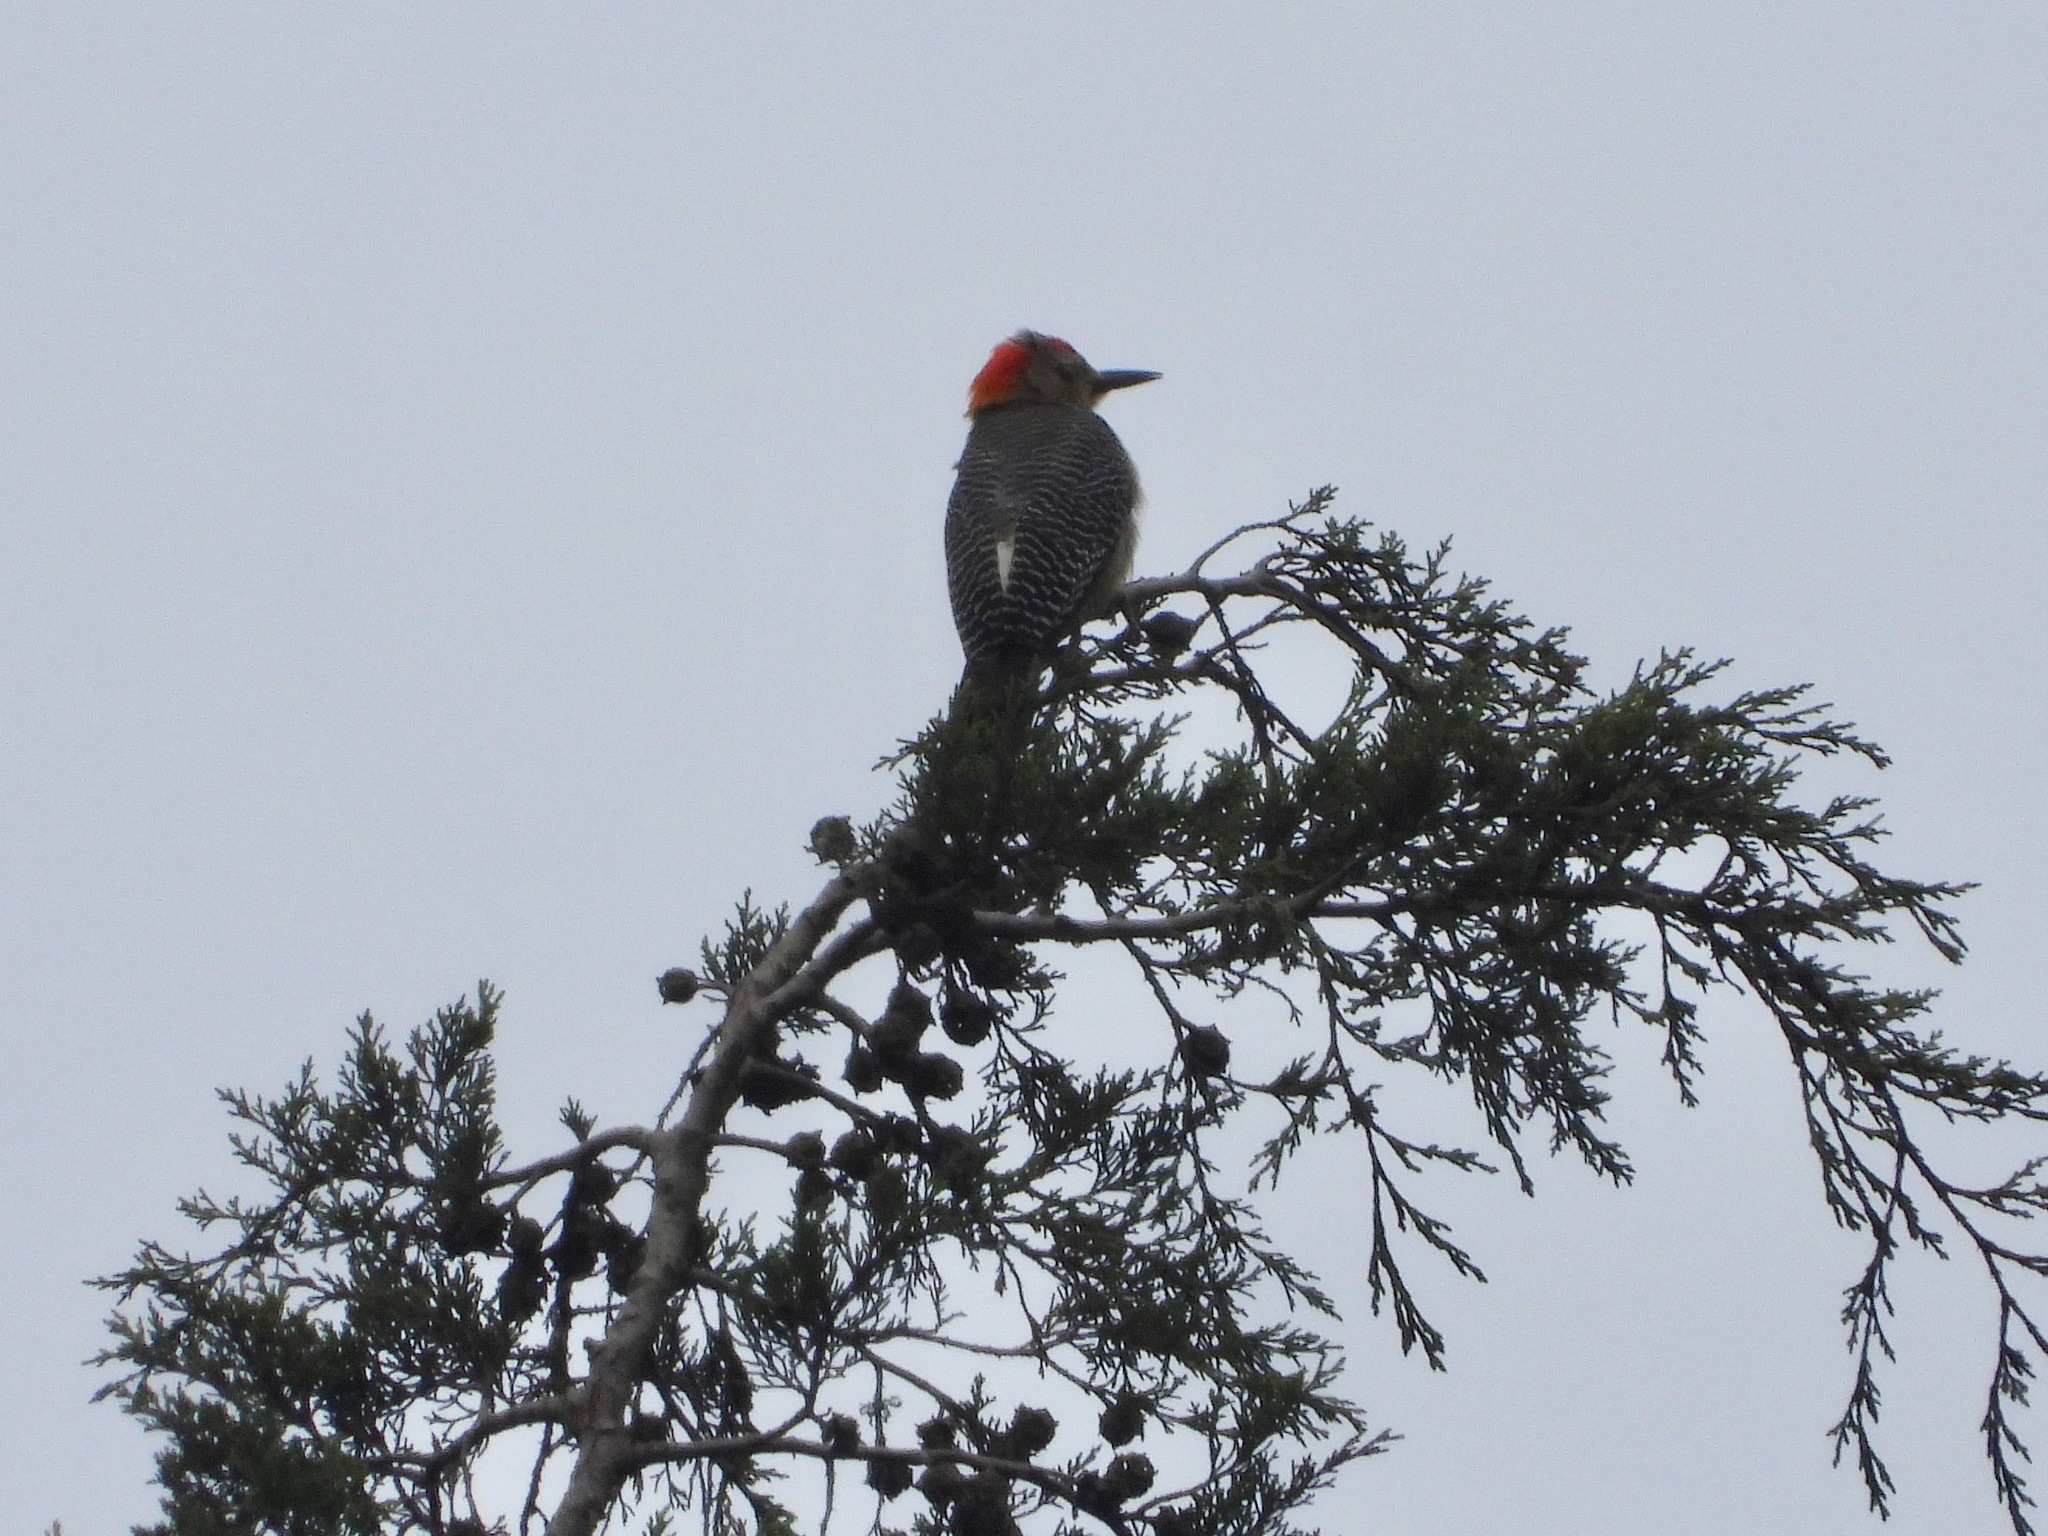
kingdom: Animalia
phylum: Chordata
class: Aves
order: Piciformes
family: Picidae
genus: Melanerpes
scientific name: Melanerpes aurifrons
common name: Golden-fronted woodpecker
